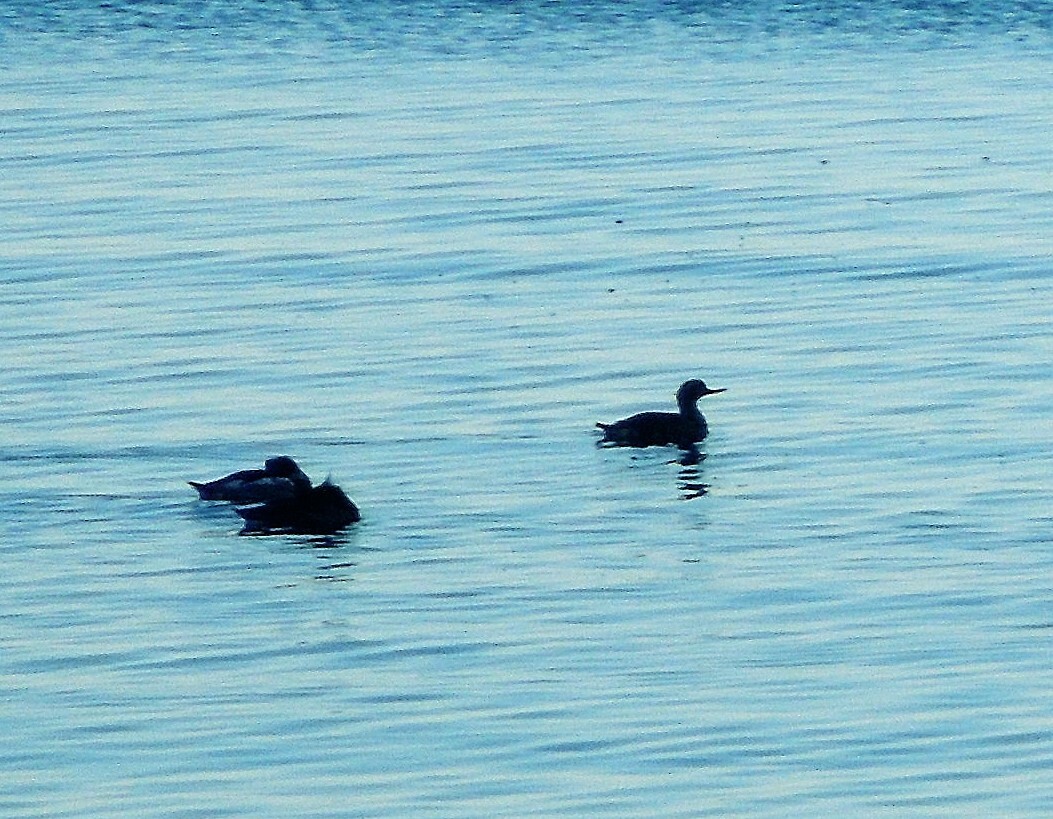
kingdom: Animalia
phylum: Chordata
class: Aves
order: Anseriformes
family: Anatidae
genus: Mergus
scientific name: Mergus serrator
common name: Red-breasted merganser
